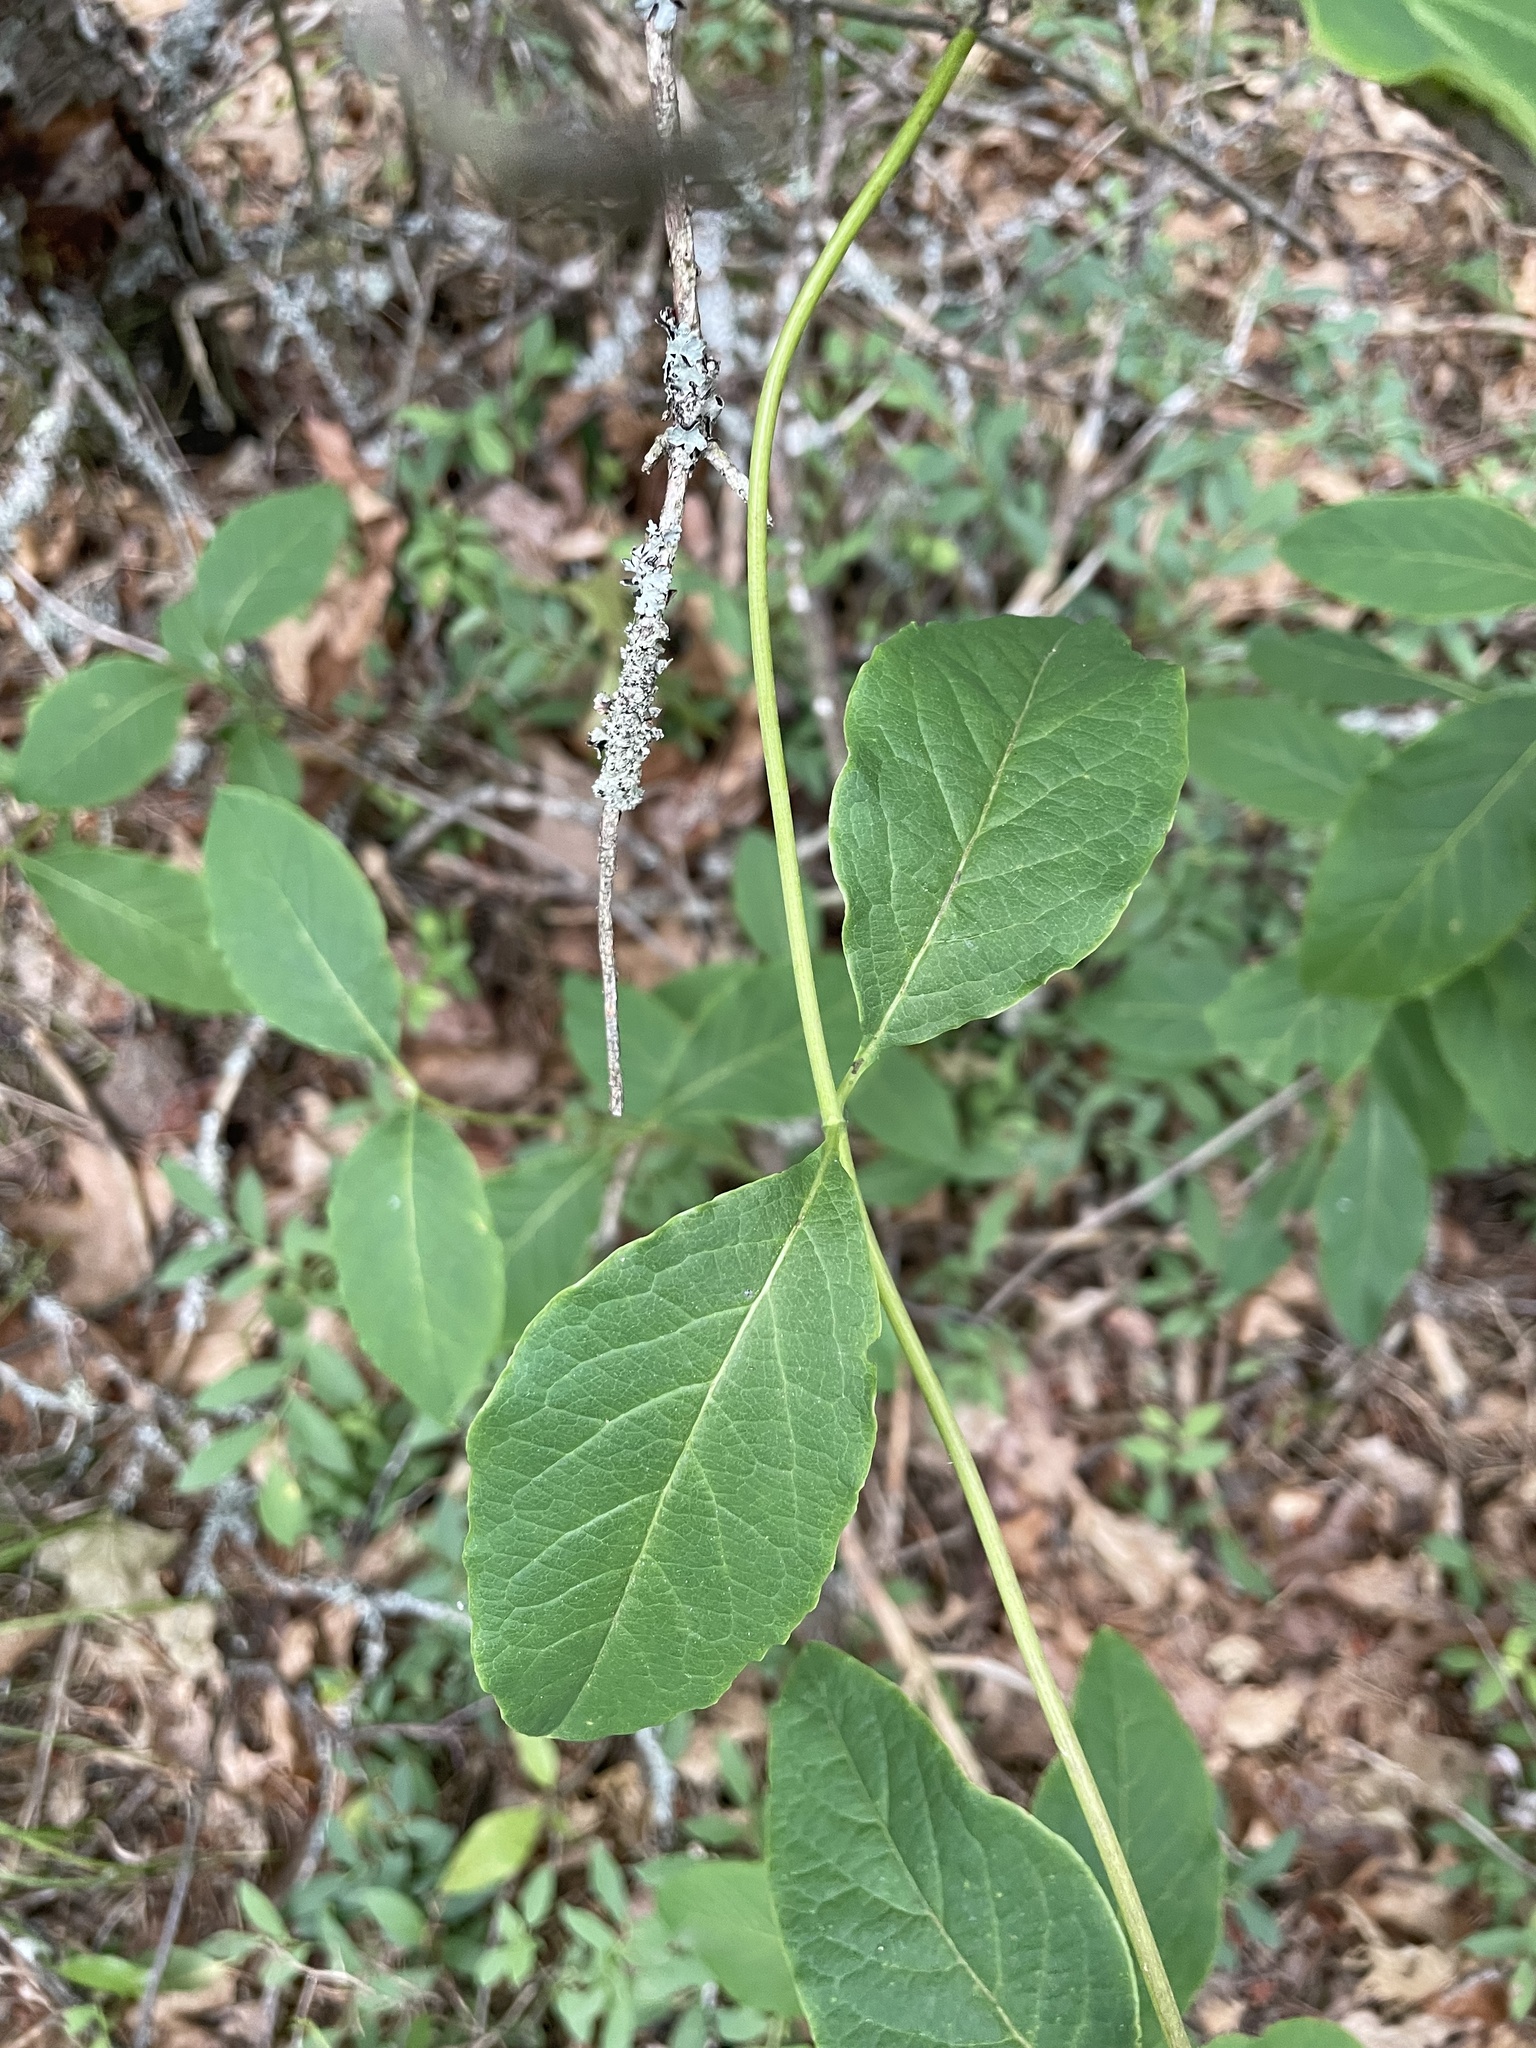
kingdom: Plantae
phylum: Tracheophyta
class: Magnoliopsida
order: Dipsacales
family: Caprifoliaceae
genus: Lonicera
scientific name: Lonicera dioica
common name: Limber honeysuckle
